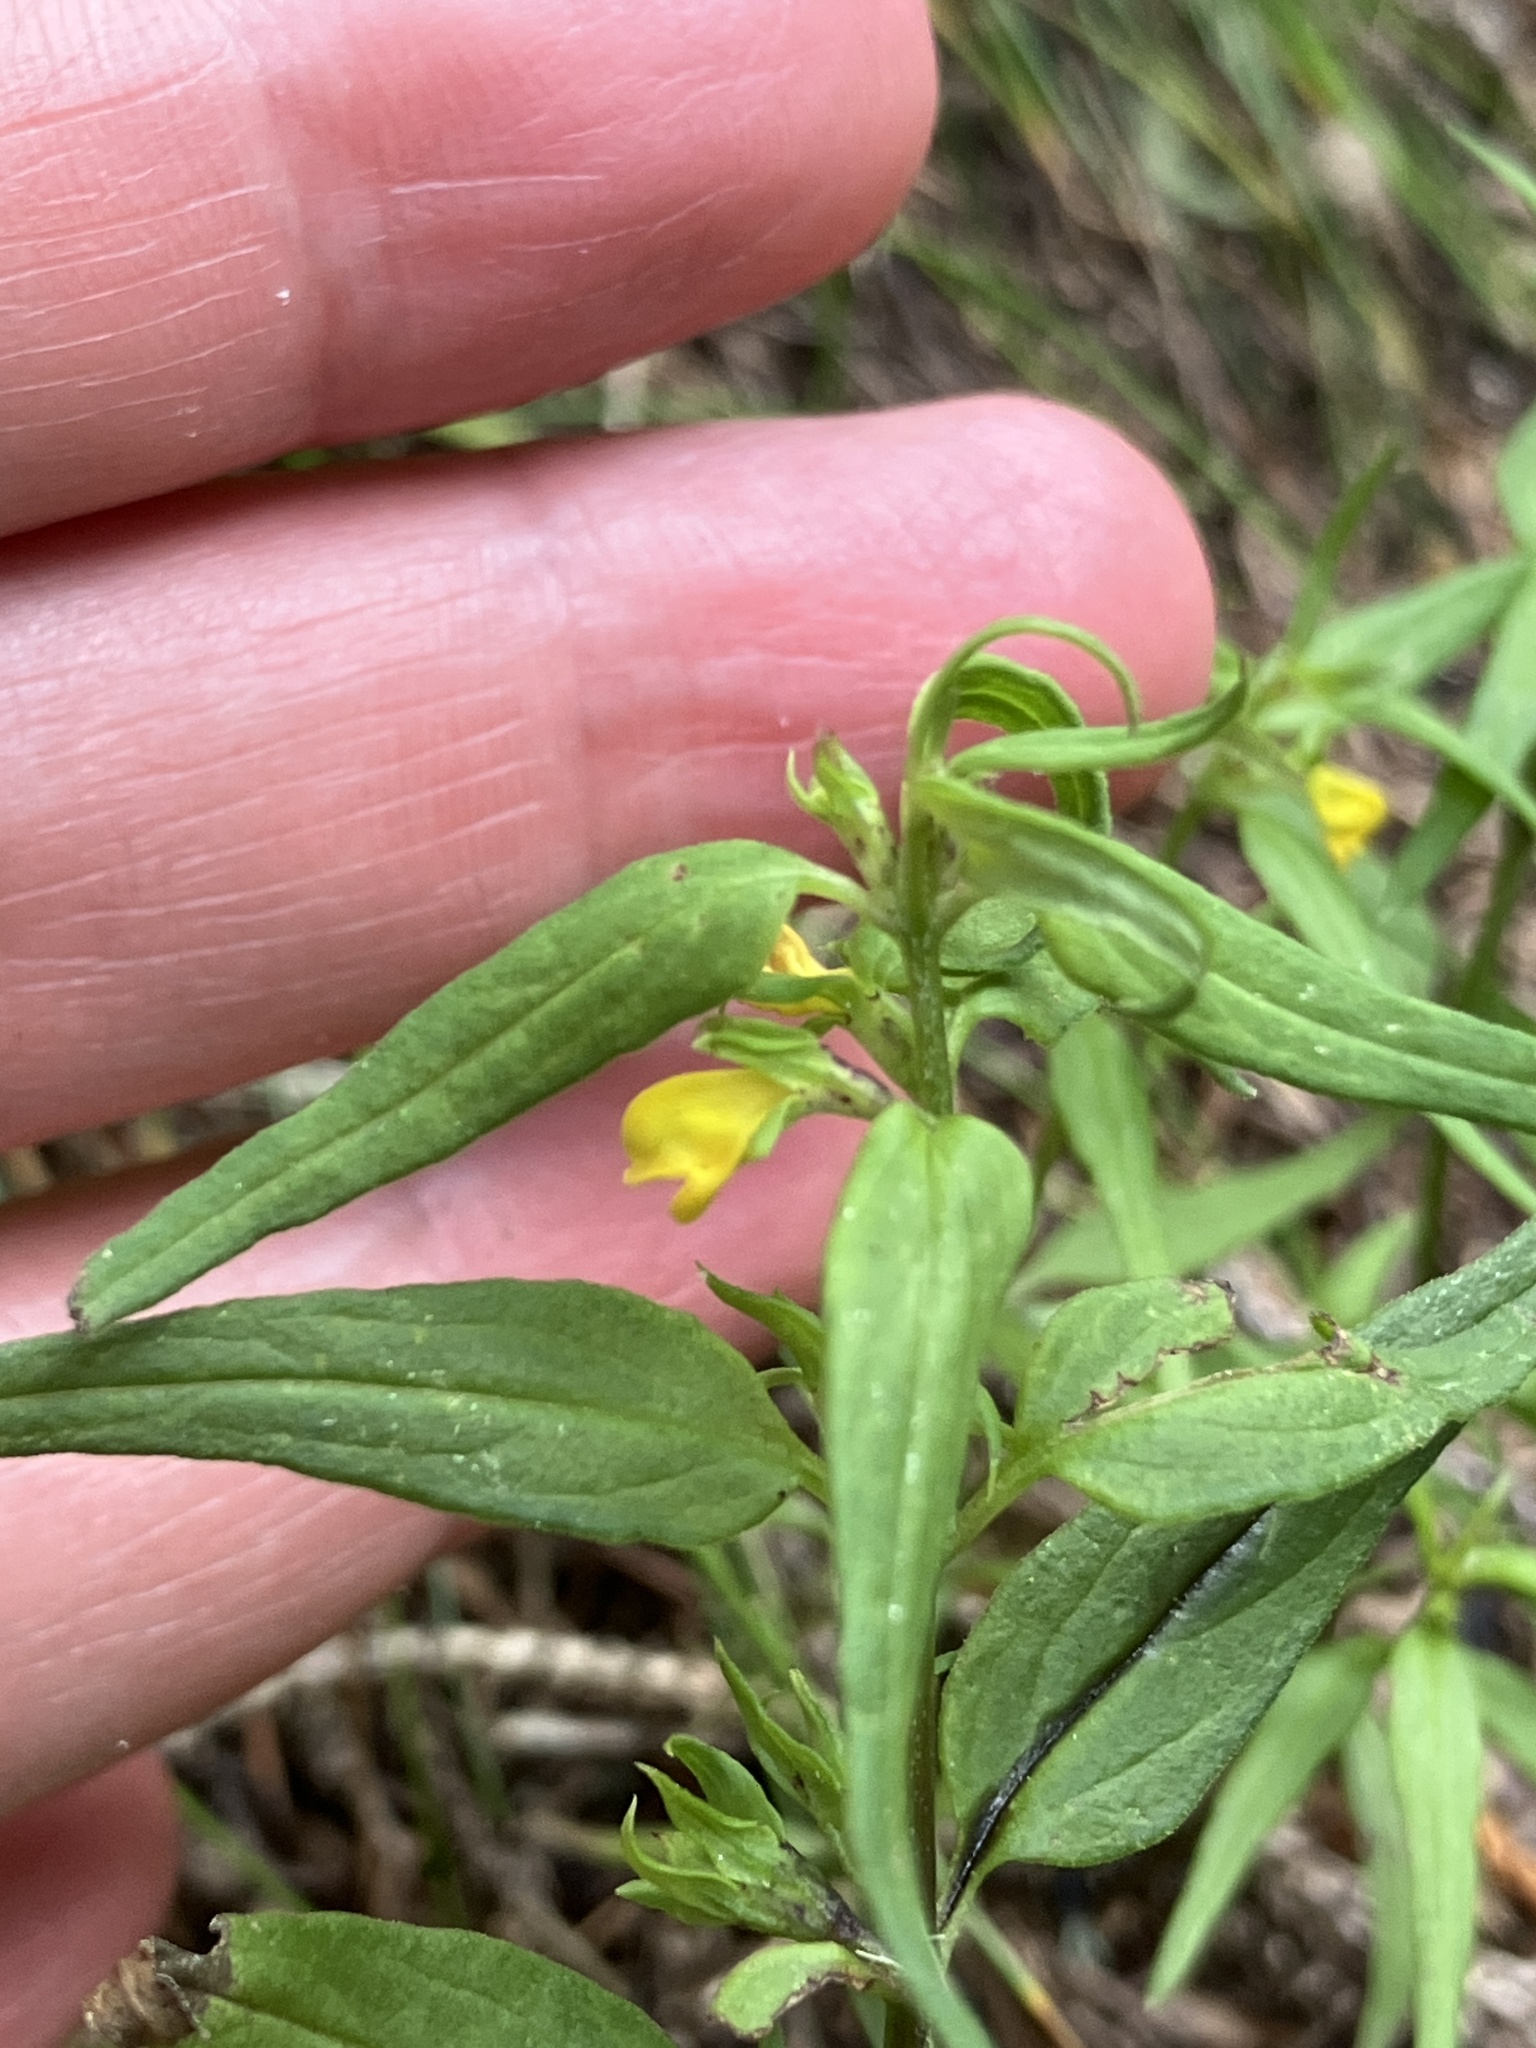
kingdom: Plantae
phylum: Tracheophyta
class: Magnoliopsida
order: Lamiales
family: Orobanchaceae
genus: Melampyrum
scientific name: Melampyrum sylvaticum
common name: Small cow-wheat
